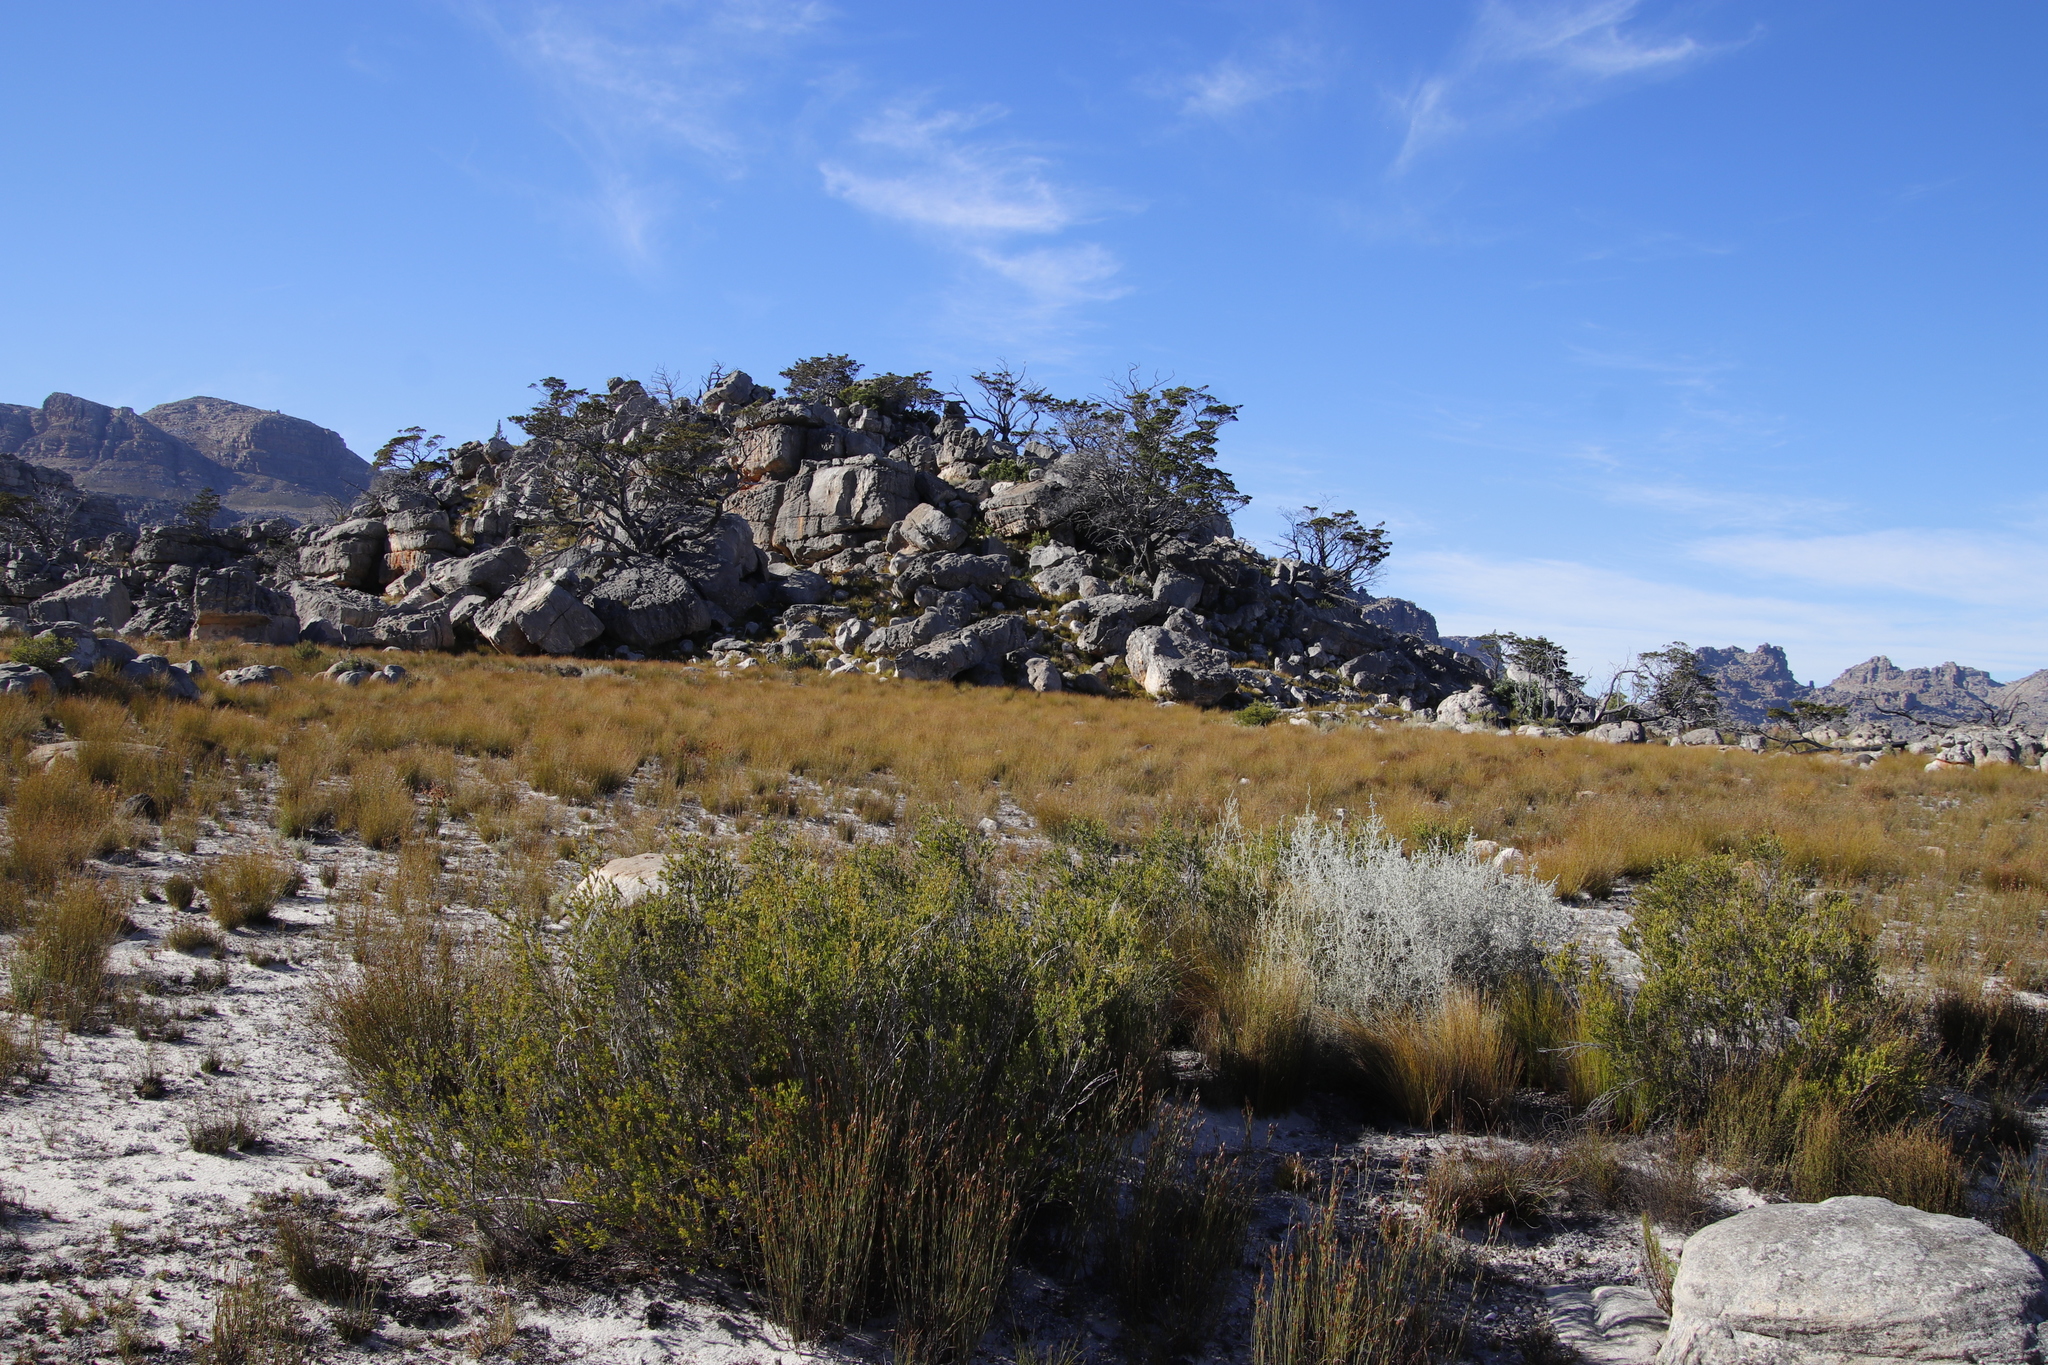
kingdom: Plantae
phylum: Tracheophyta
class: Magnoliopsida
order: Ericales
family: Ebenaceae
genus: Diospyros
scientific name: Diospyros glabra
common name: Fynbos star apple
